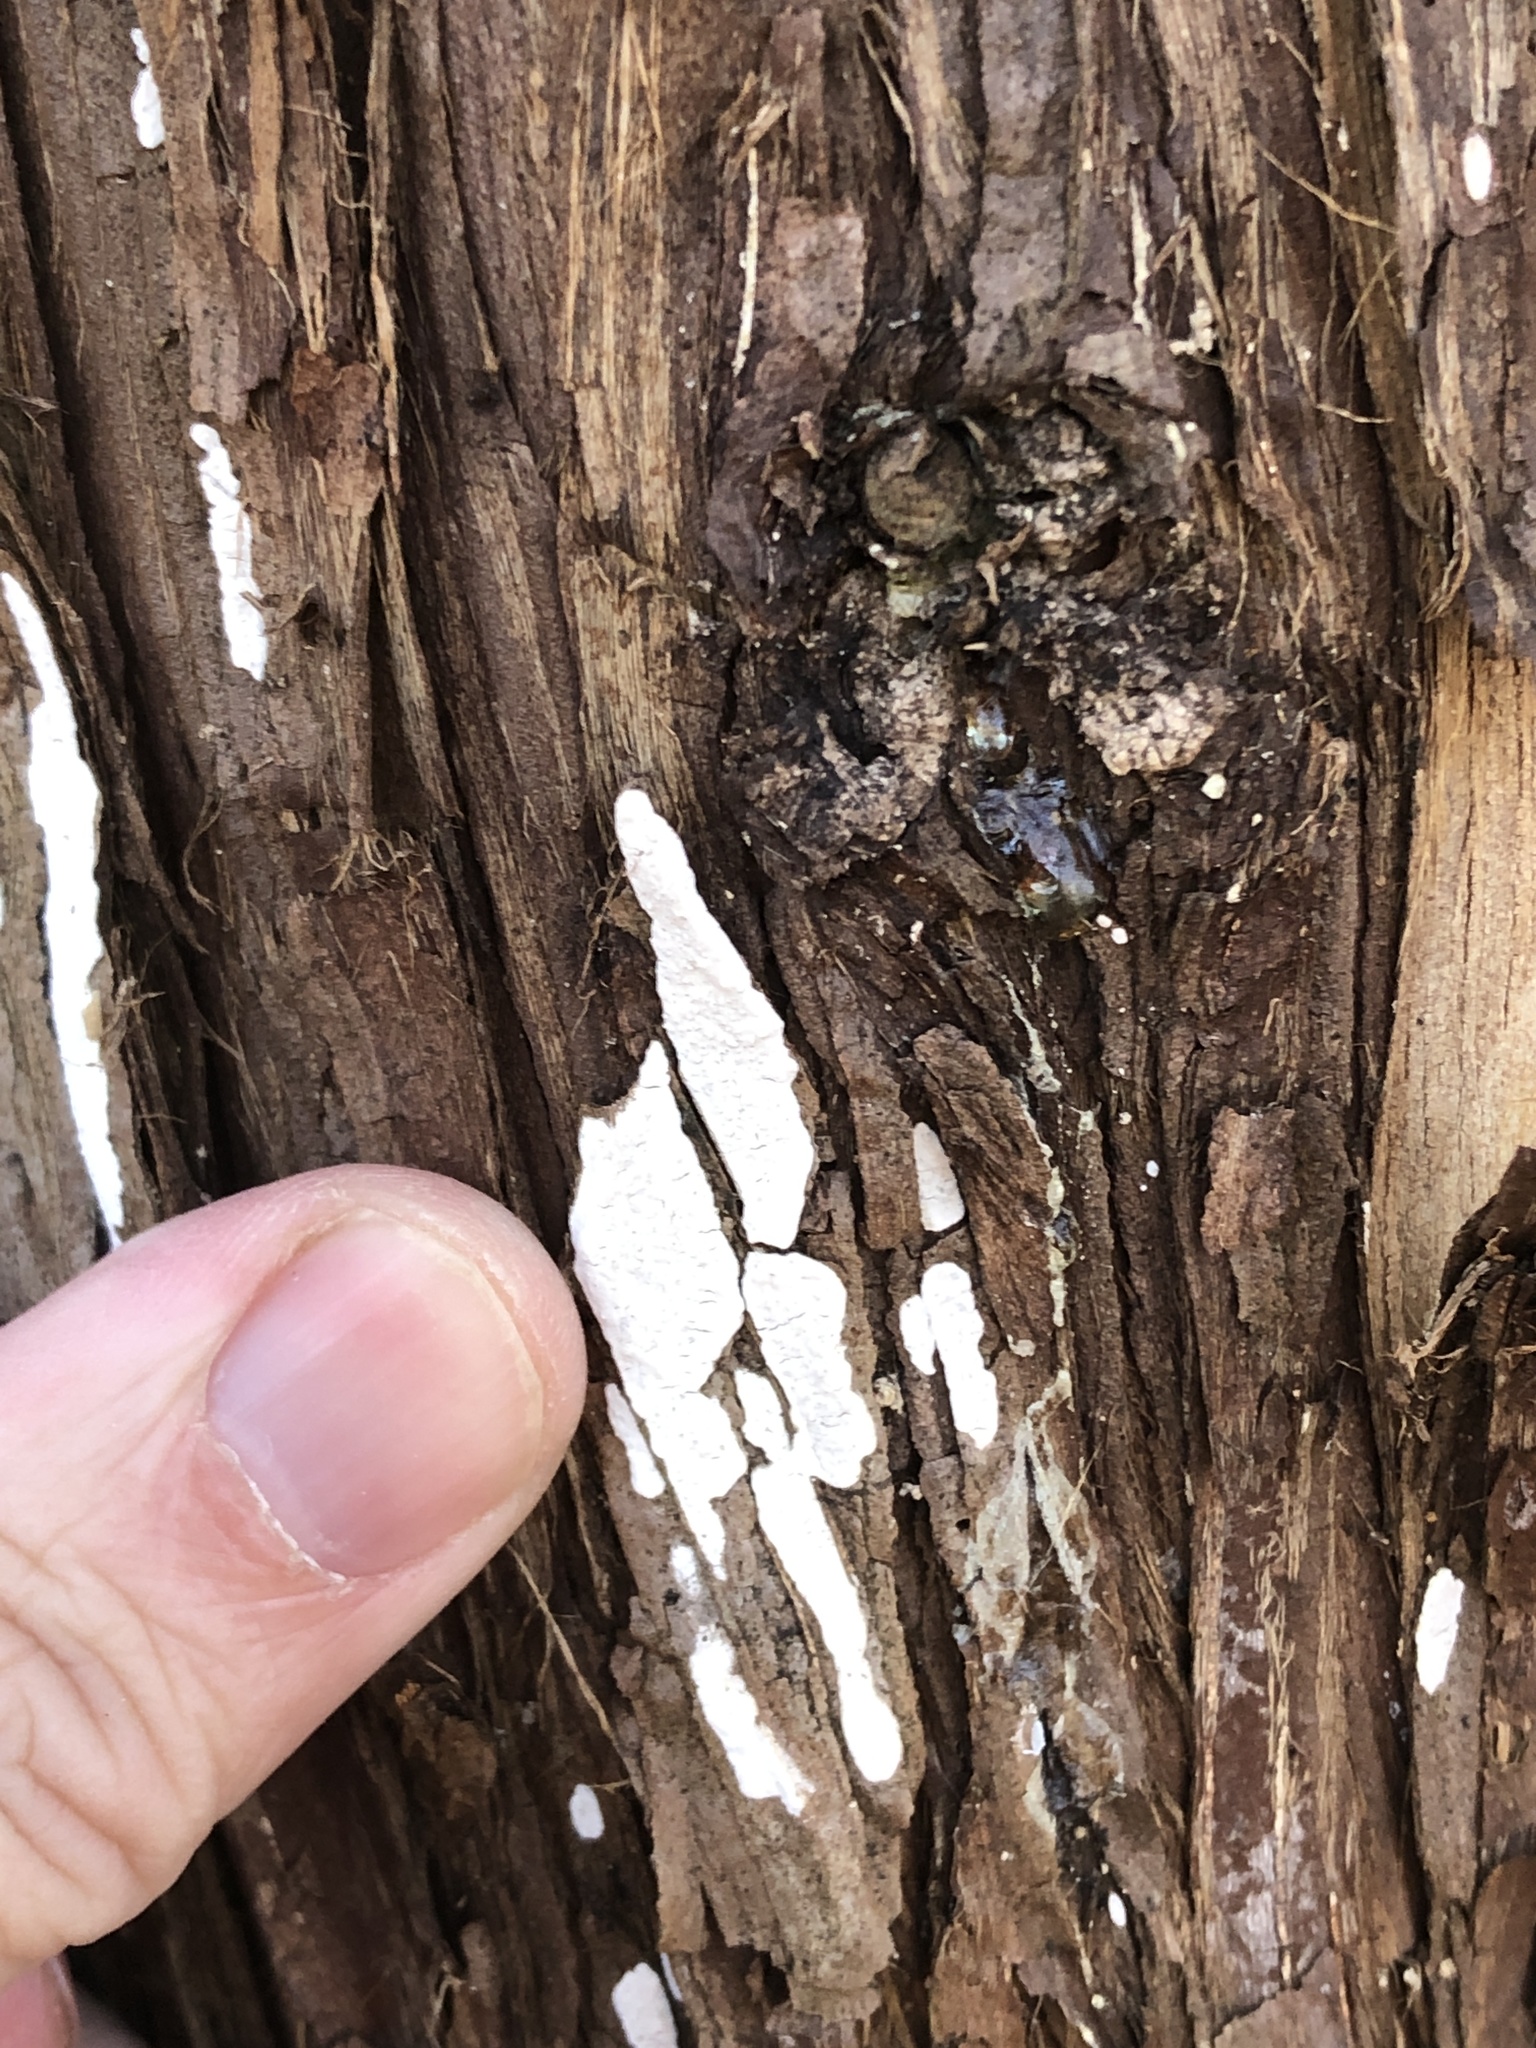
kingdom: Fungi
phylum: Basidiomycota
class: Agaricomycetes
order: Agaricales
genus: Dendrothele
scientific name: Dendrothele nivosa
